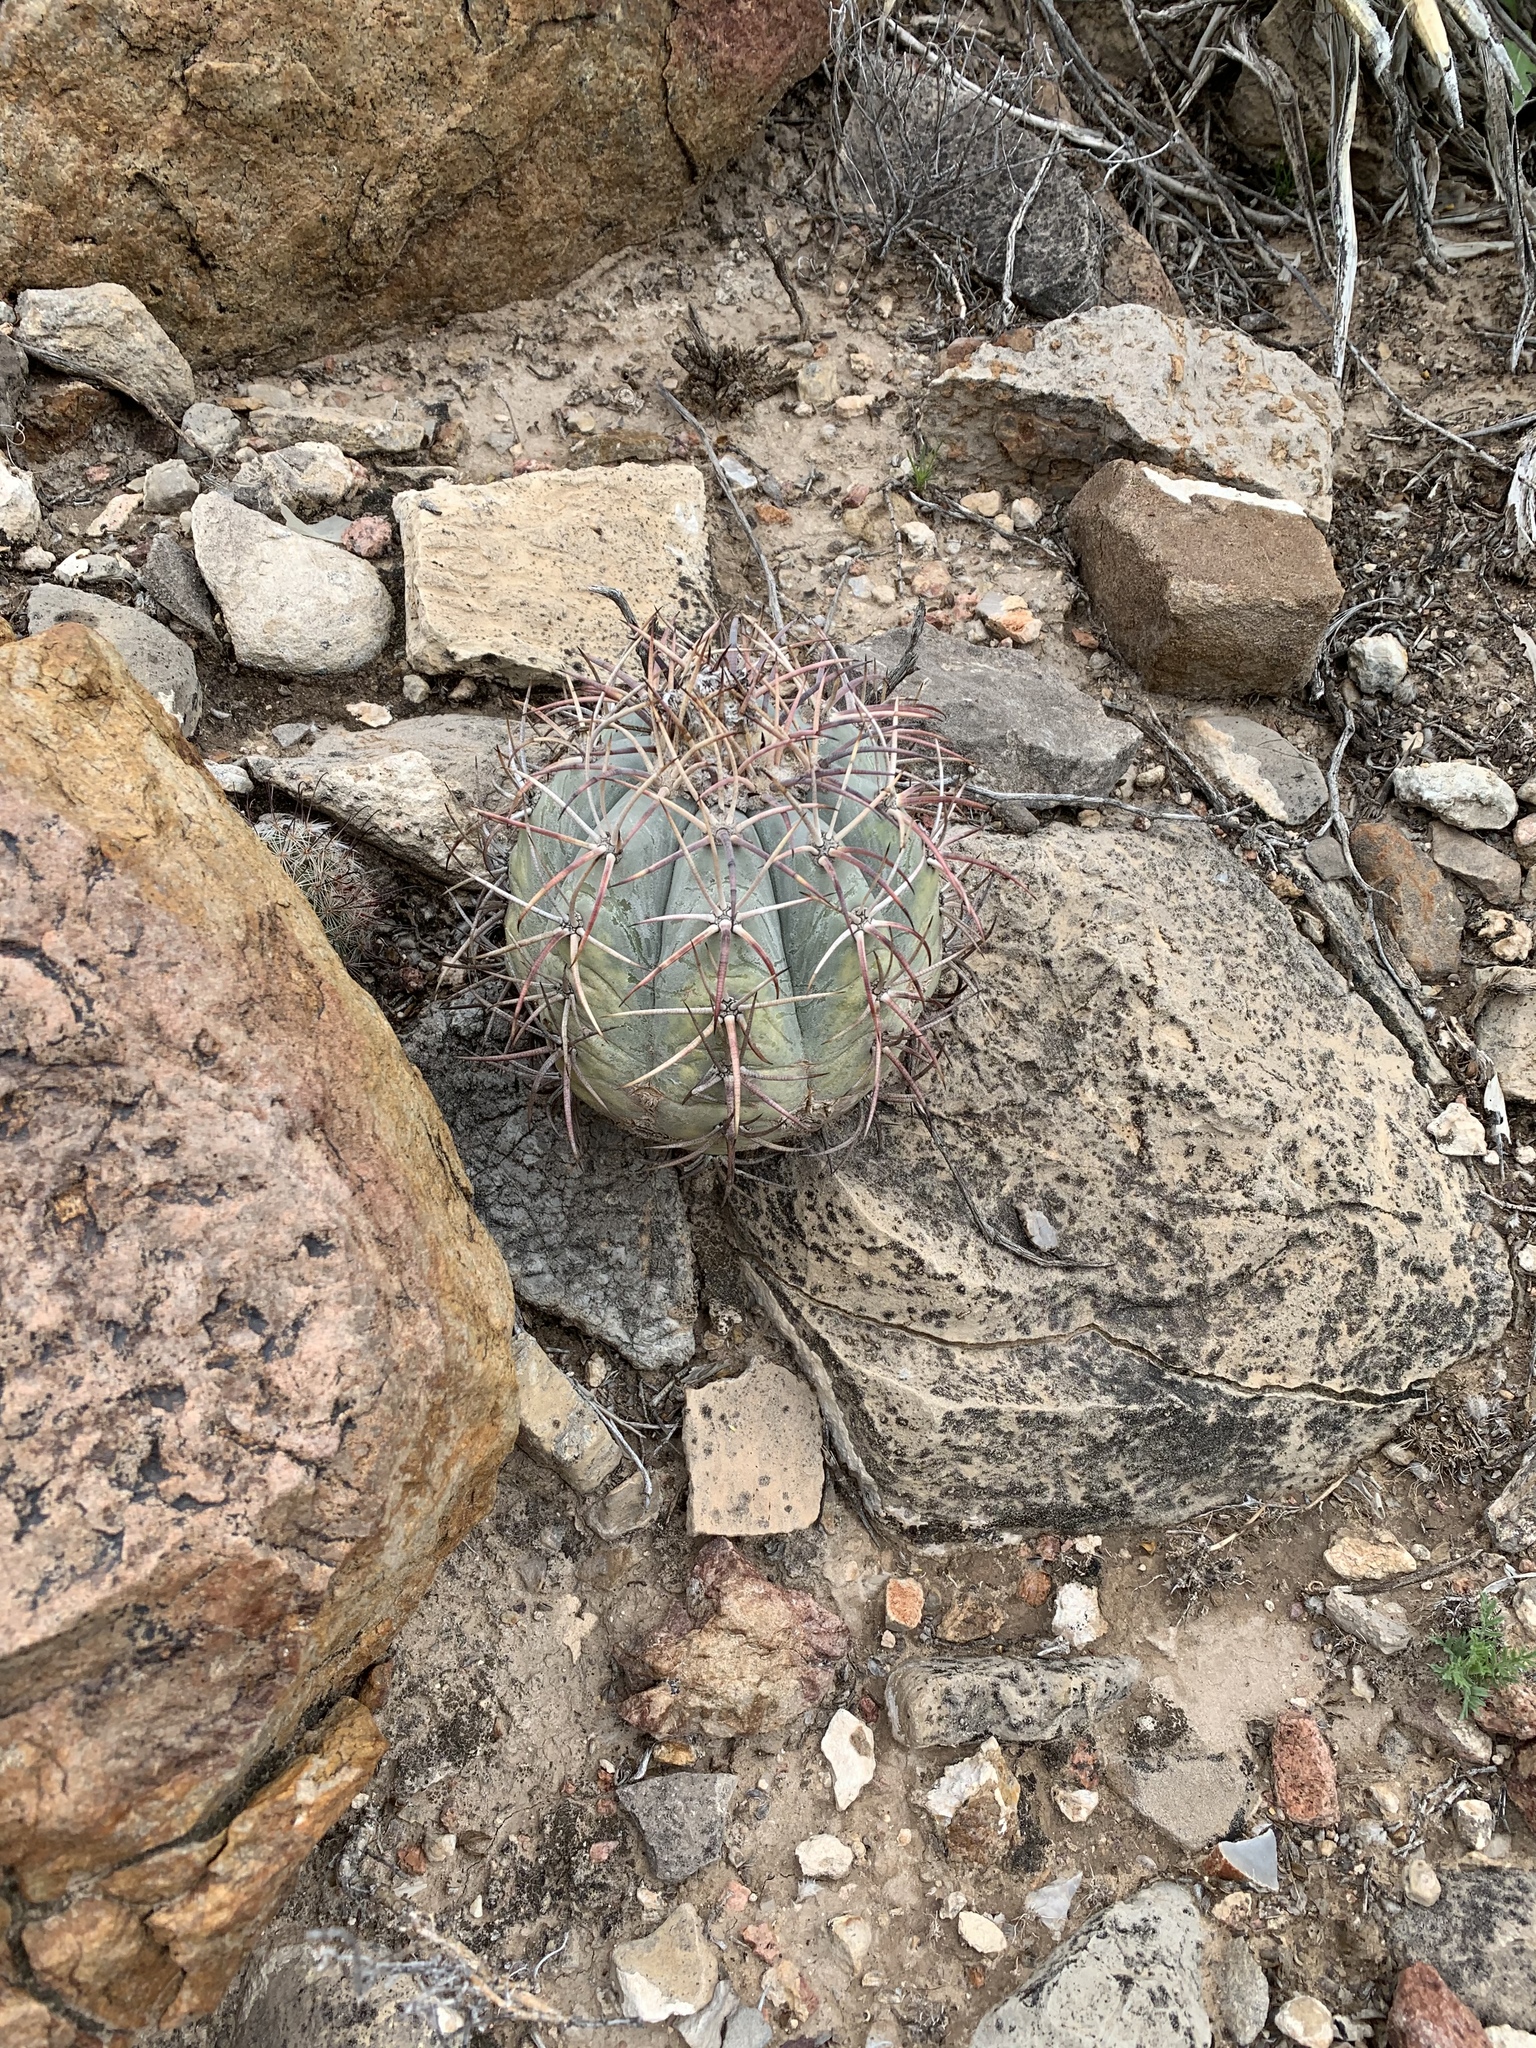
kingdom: Plantae
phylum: Tracheophyta
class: Magnoliopsida
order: Caryophyllales
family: Cactaceae
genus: Echinocactus
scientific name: Echinocactus horizonthalonius
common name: Devilshead
